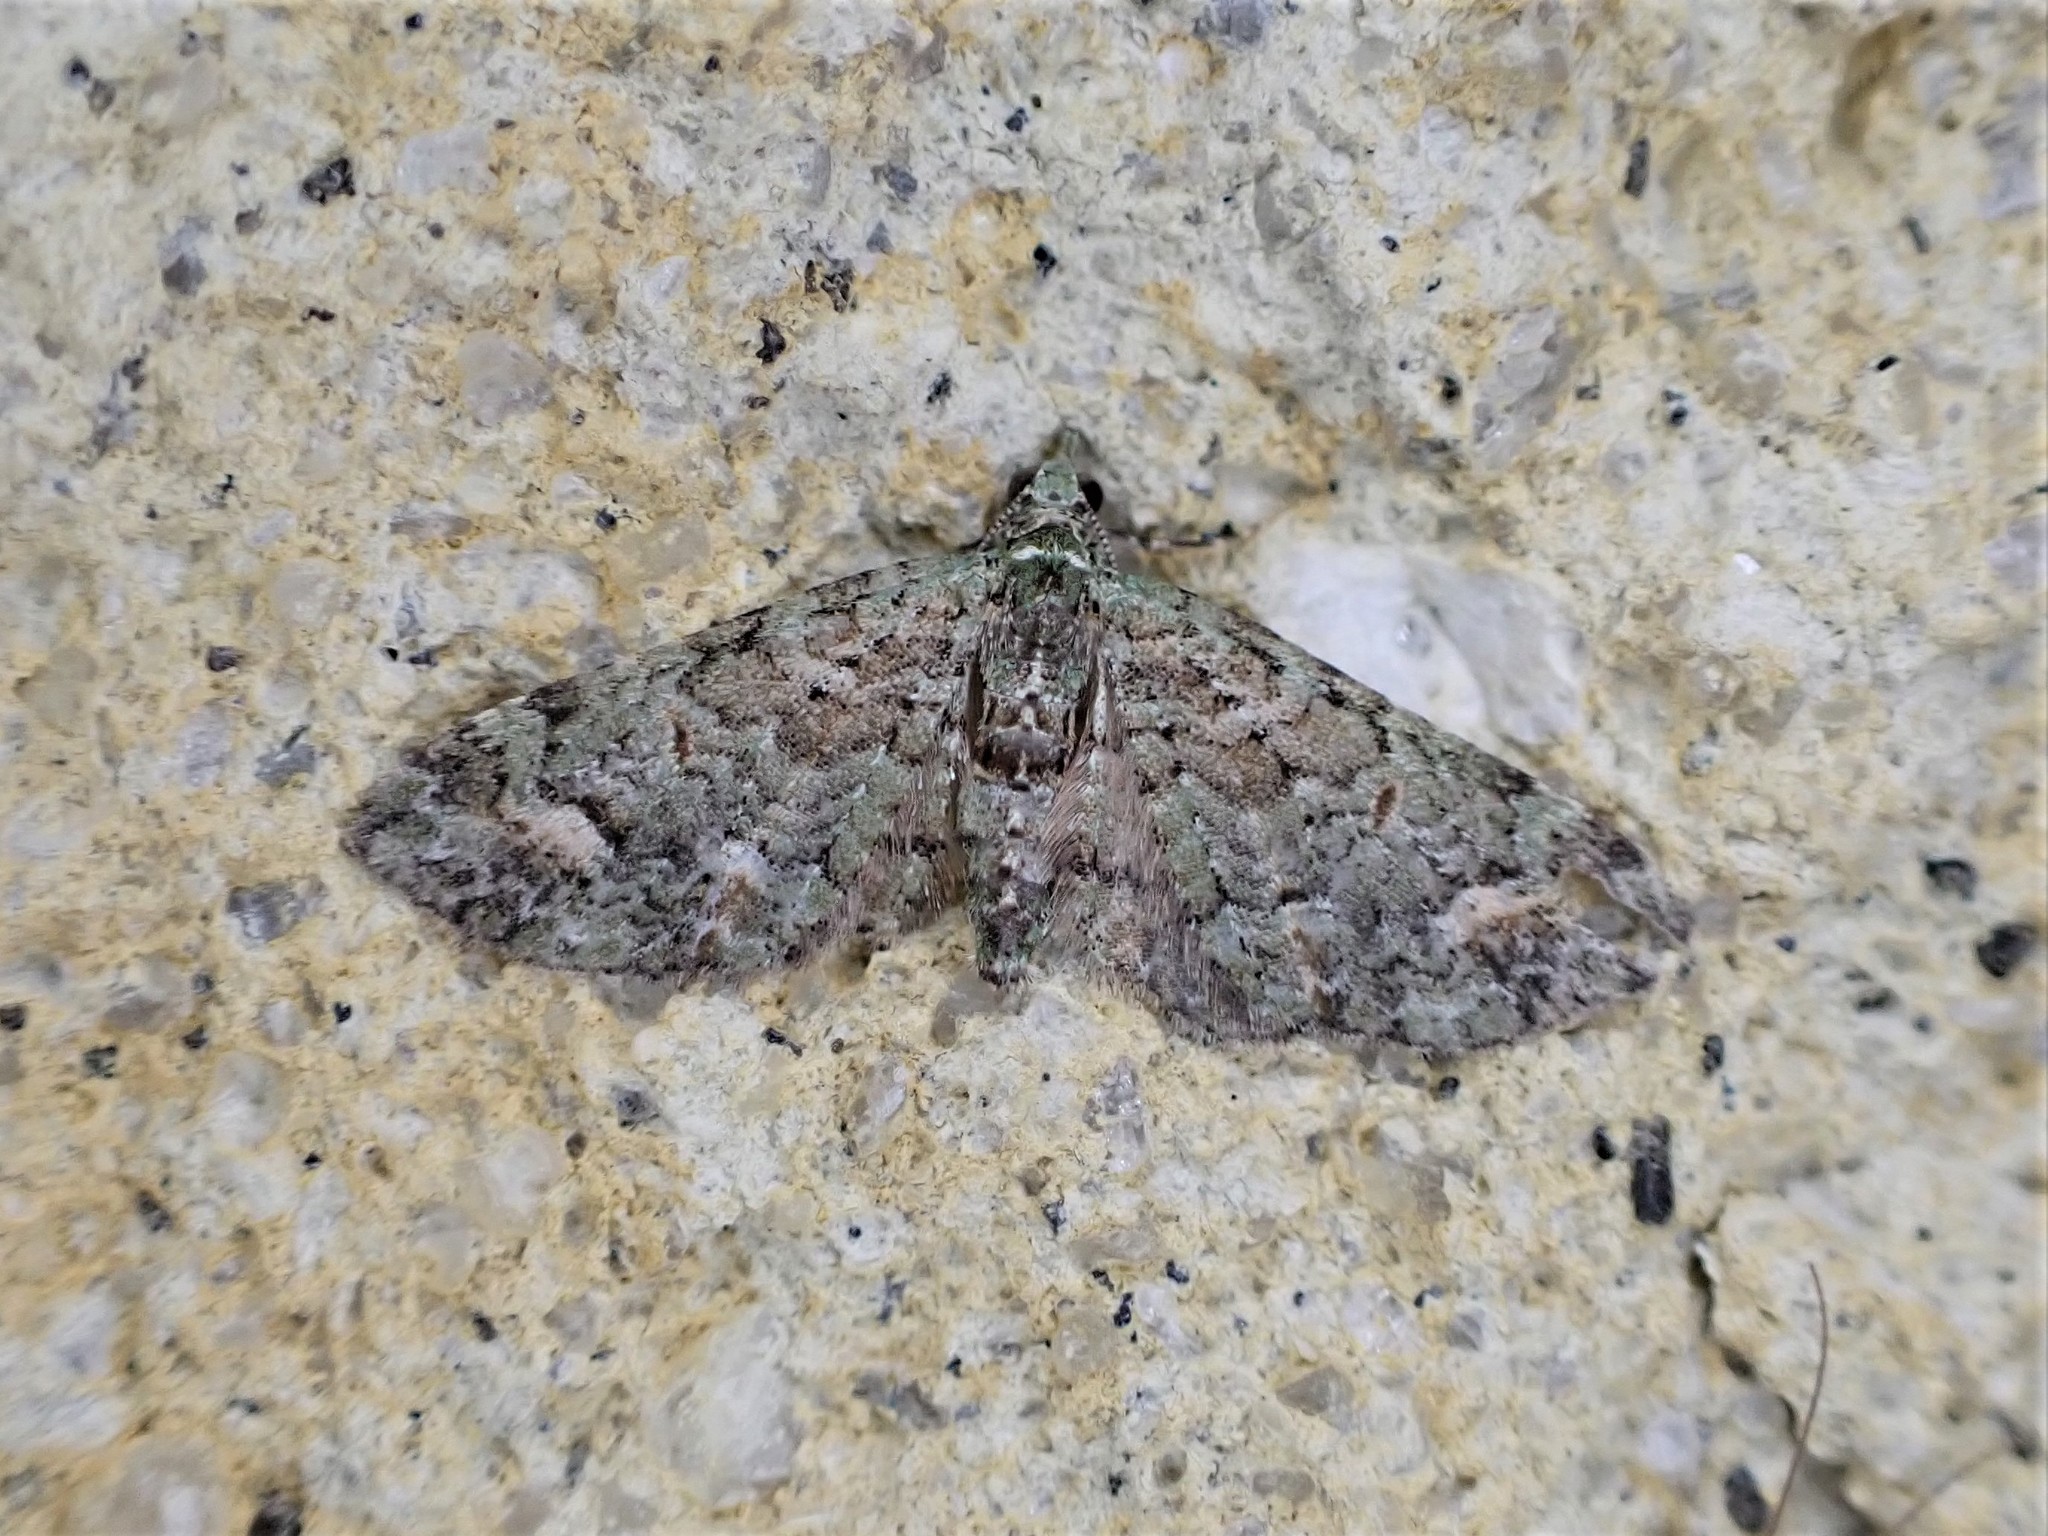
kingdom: Animalia
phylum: Arthropoda
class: Insecta
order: Lepidoptera
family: Geometridae
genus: Idaea
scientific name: Idaea mutanda
